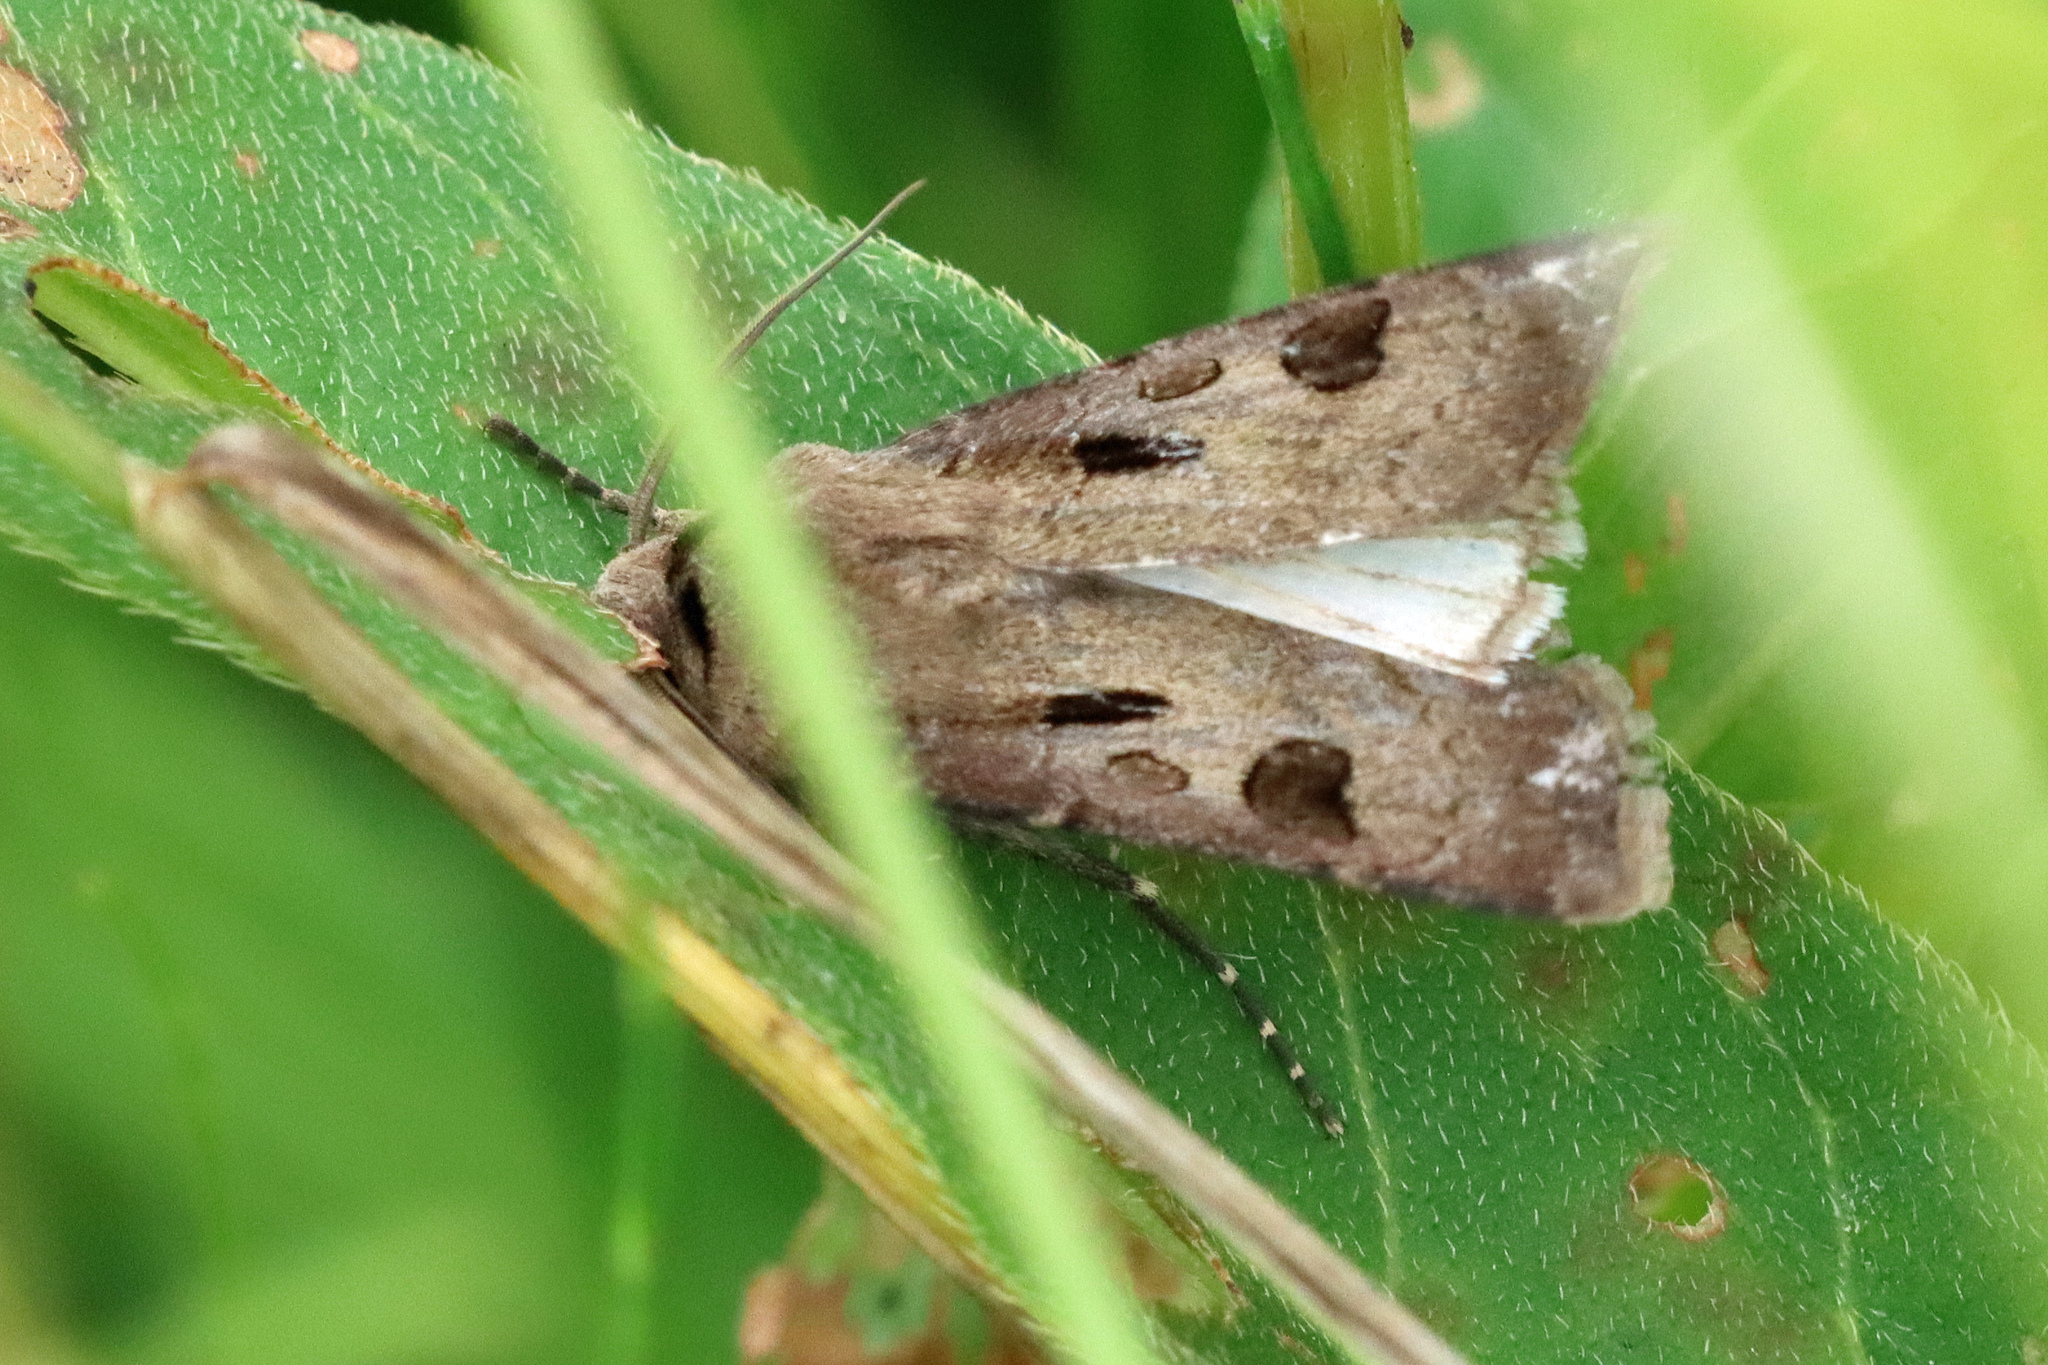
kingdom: Animalia
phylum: Arthropoda
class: Insecta
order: Lepidoptera
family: Noctuidae
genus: Agrotis
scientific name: Agrotis exclamationis
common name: Heart and dart
